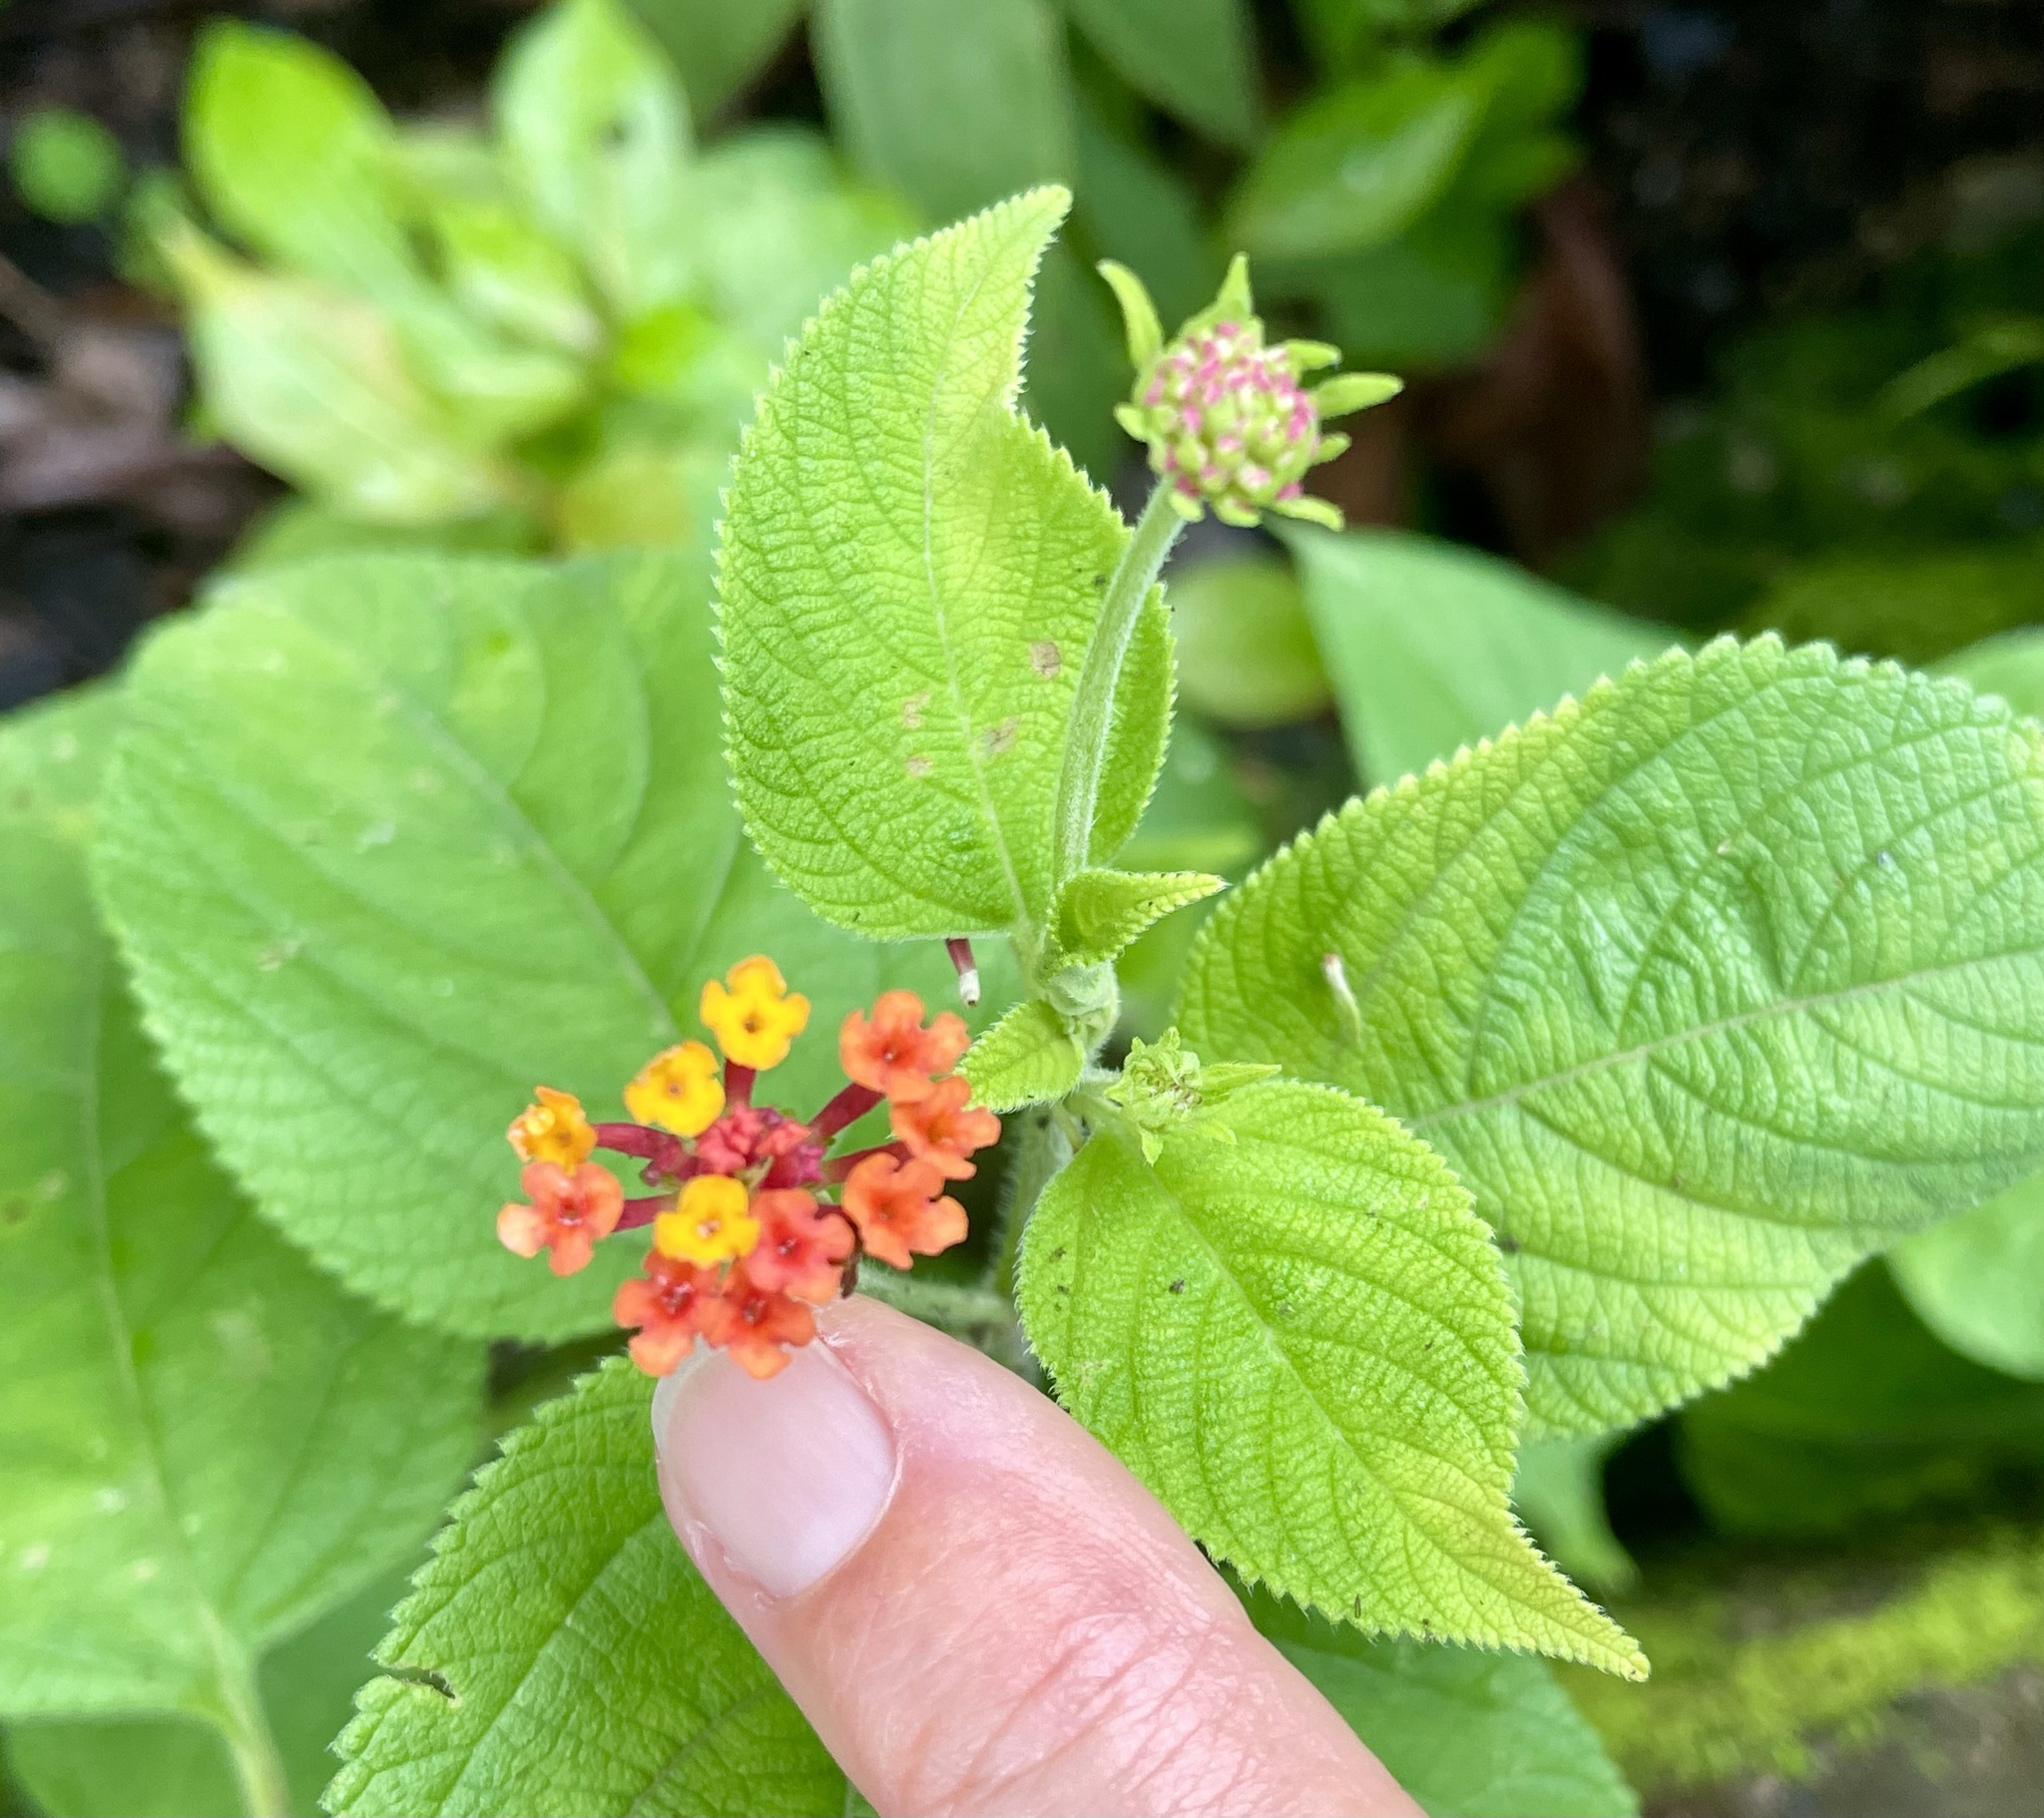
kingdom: Plantae
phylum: Tracheophyta
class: Magnoliopsida
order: Lamiales
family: Verbenaceae
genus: Lantana
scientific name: Lantana camara
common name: Lantana
